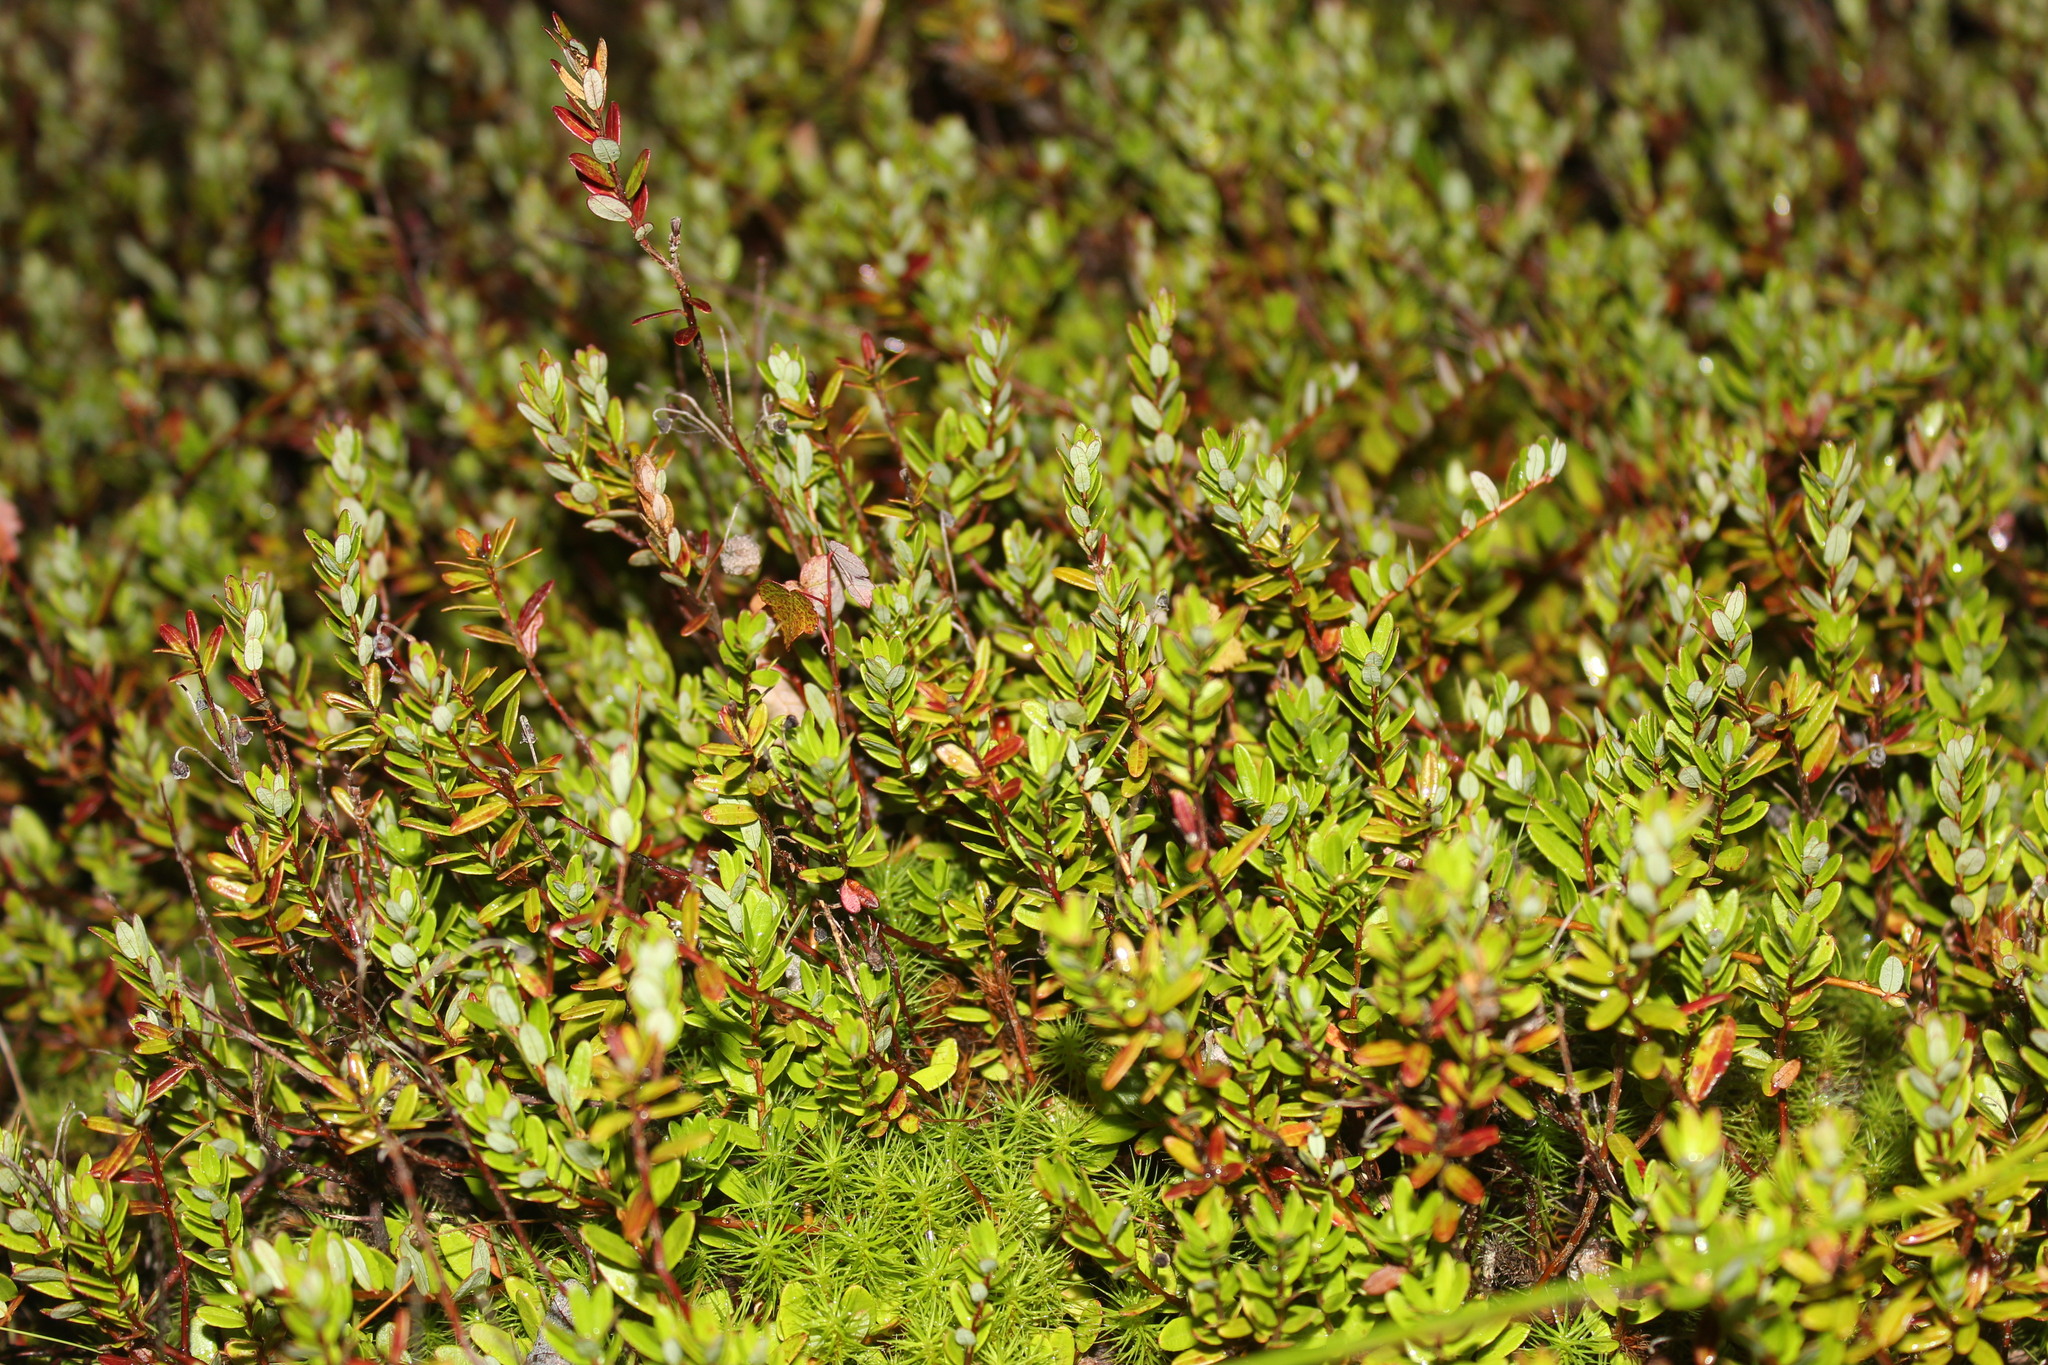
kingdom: Plantae
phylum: Tracheophyta
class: Magnoliopsida
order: Ericales
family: Ericaceae
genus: Vaccinium
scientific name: Vaccinium macrocarpon
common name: American cranberry
